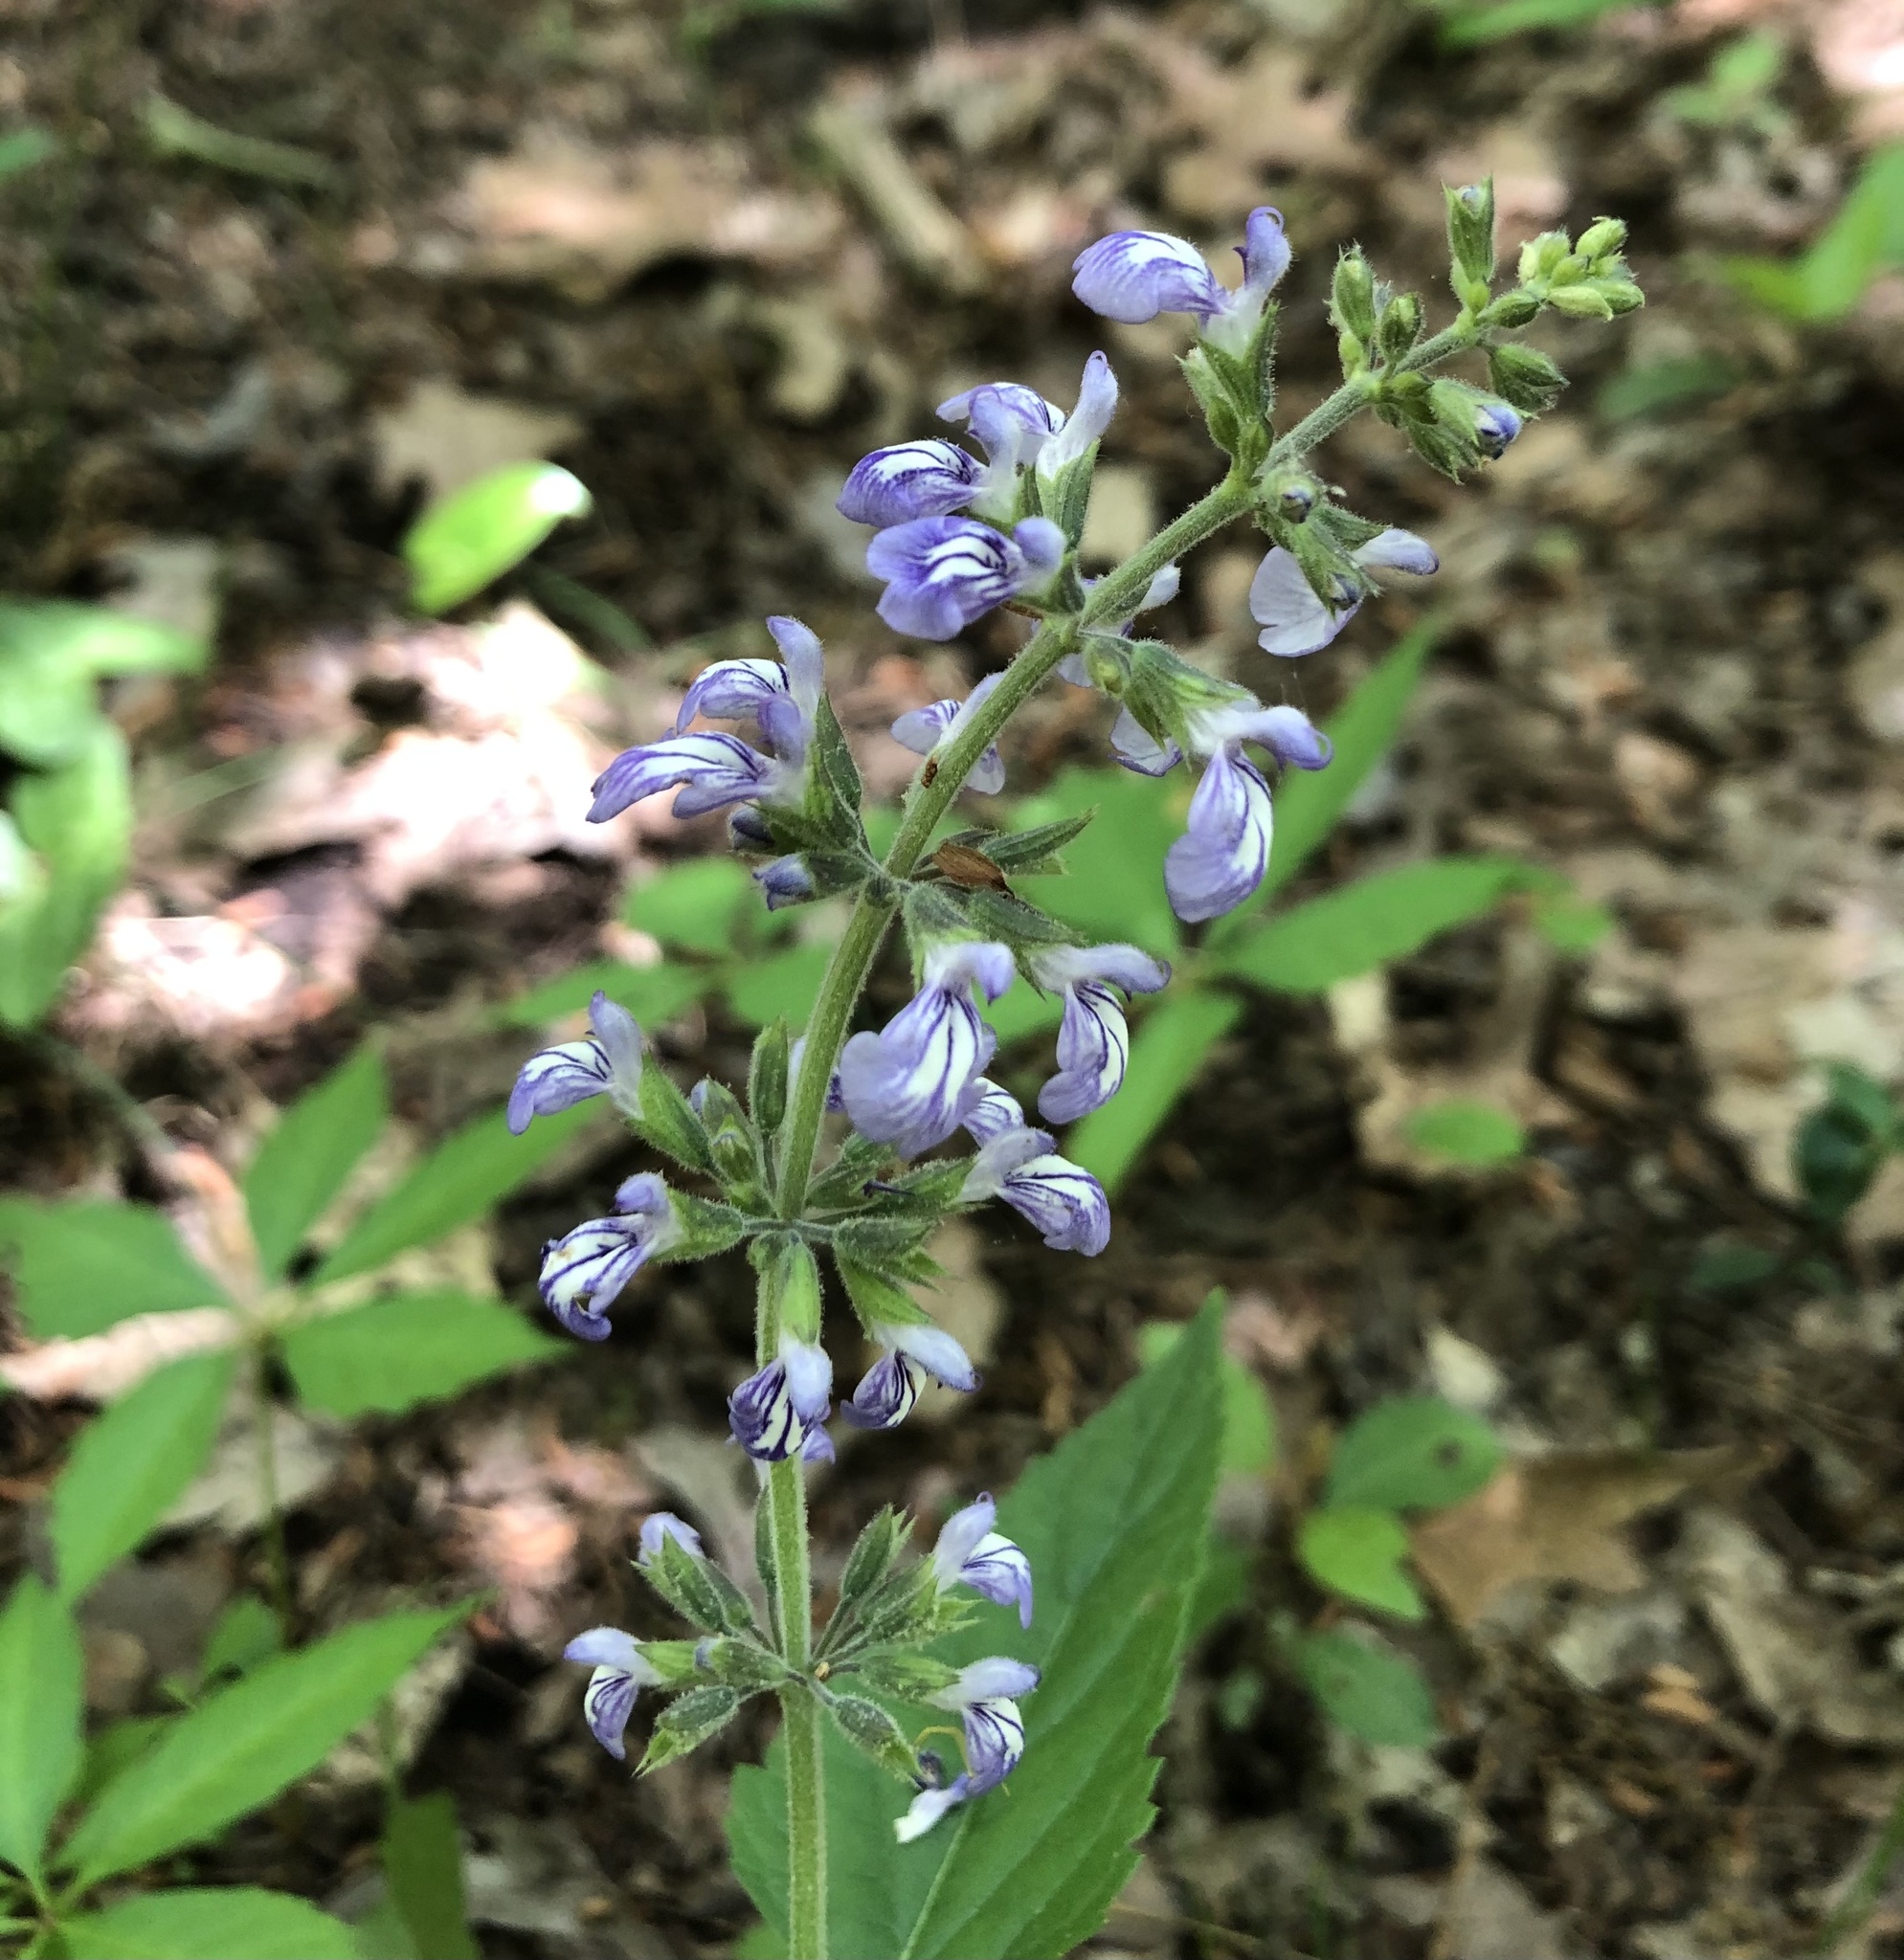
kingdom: Plantae
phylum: Tracheophyta
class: Magnoliopsida
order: Lamiales
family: Lamiaceae
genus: Salvia
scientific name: Salvia urticifolia
